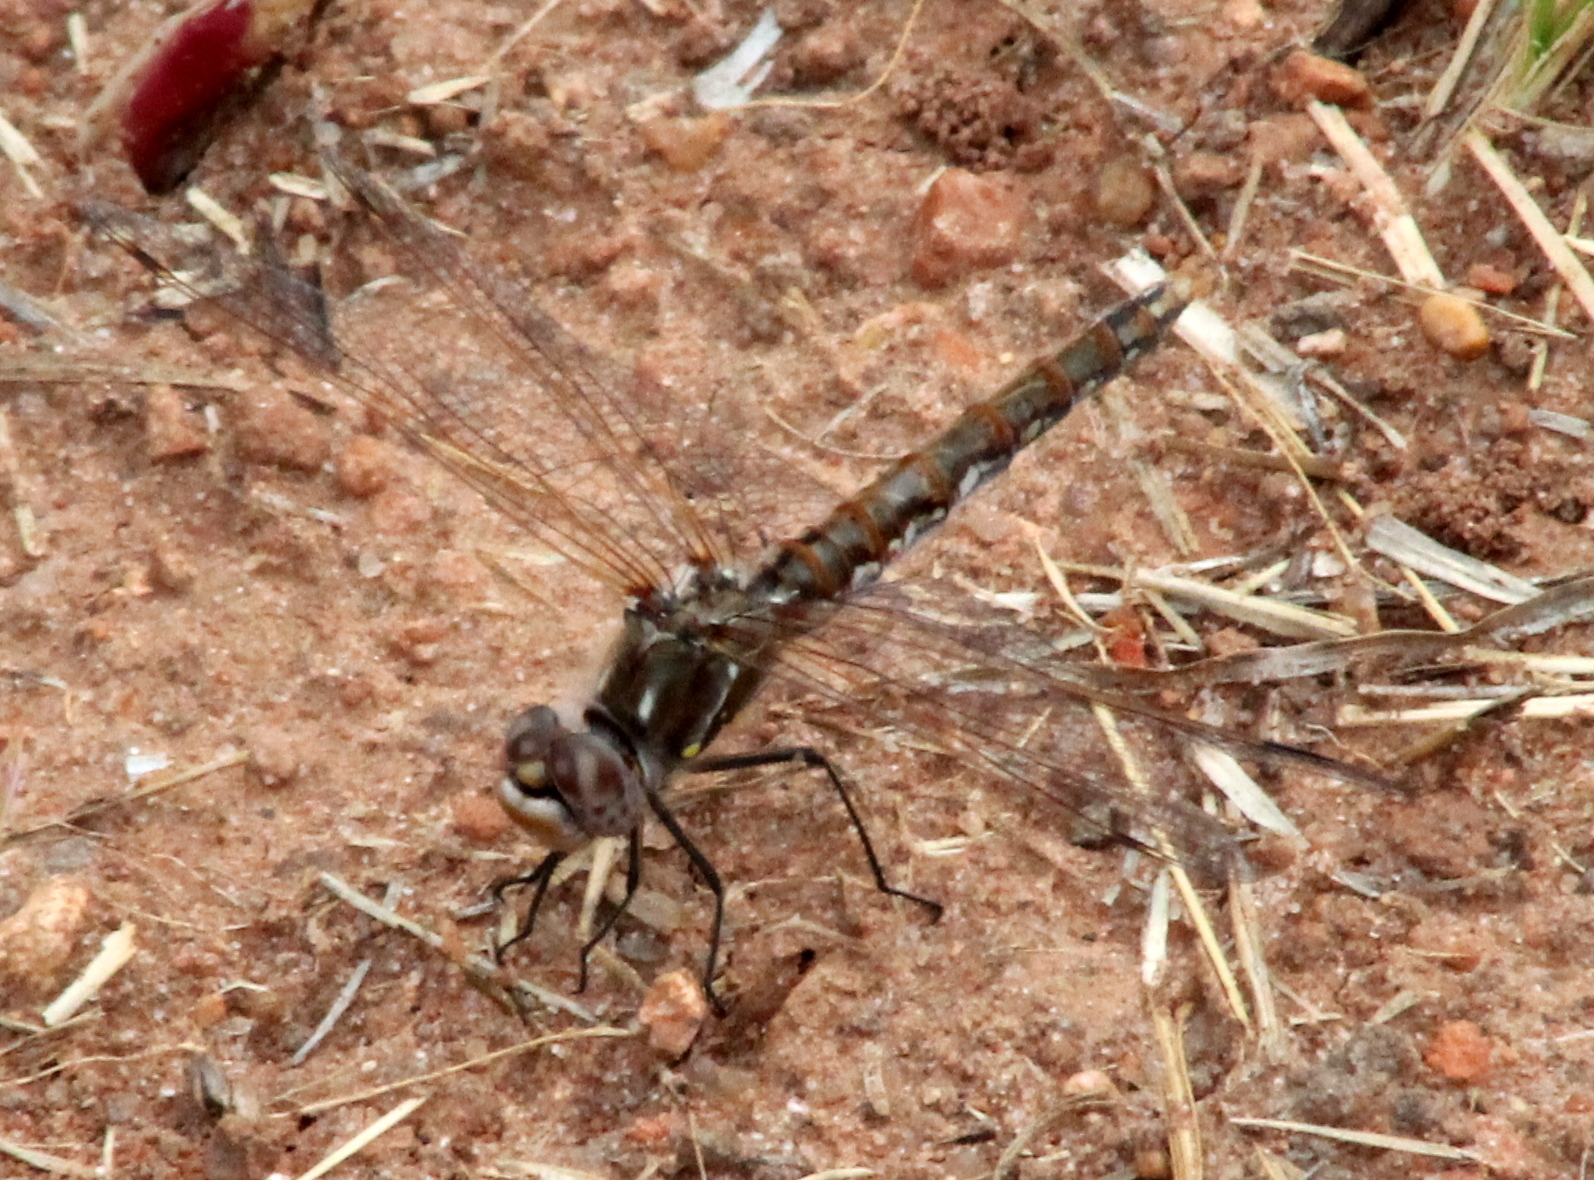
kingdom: Animalia
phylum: Arthropoda
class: Insecta
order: Odonata
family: Libellulidae
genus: Sympetrum
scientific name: Sympetrum corruptum
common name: Variegated meadowhawk
